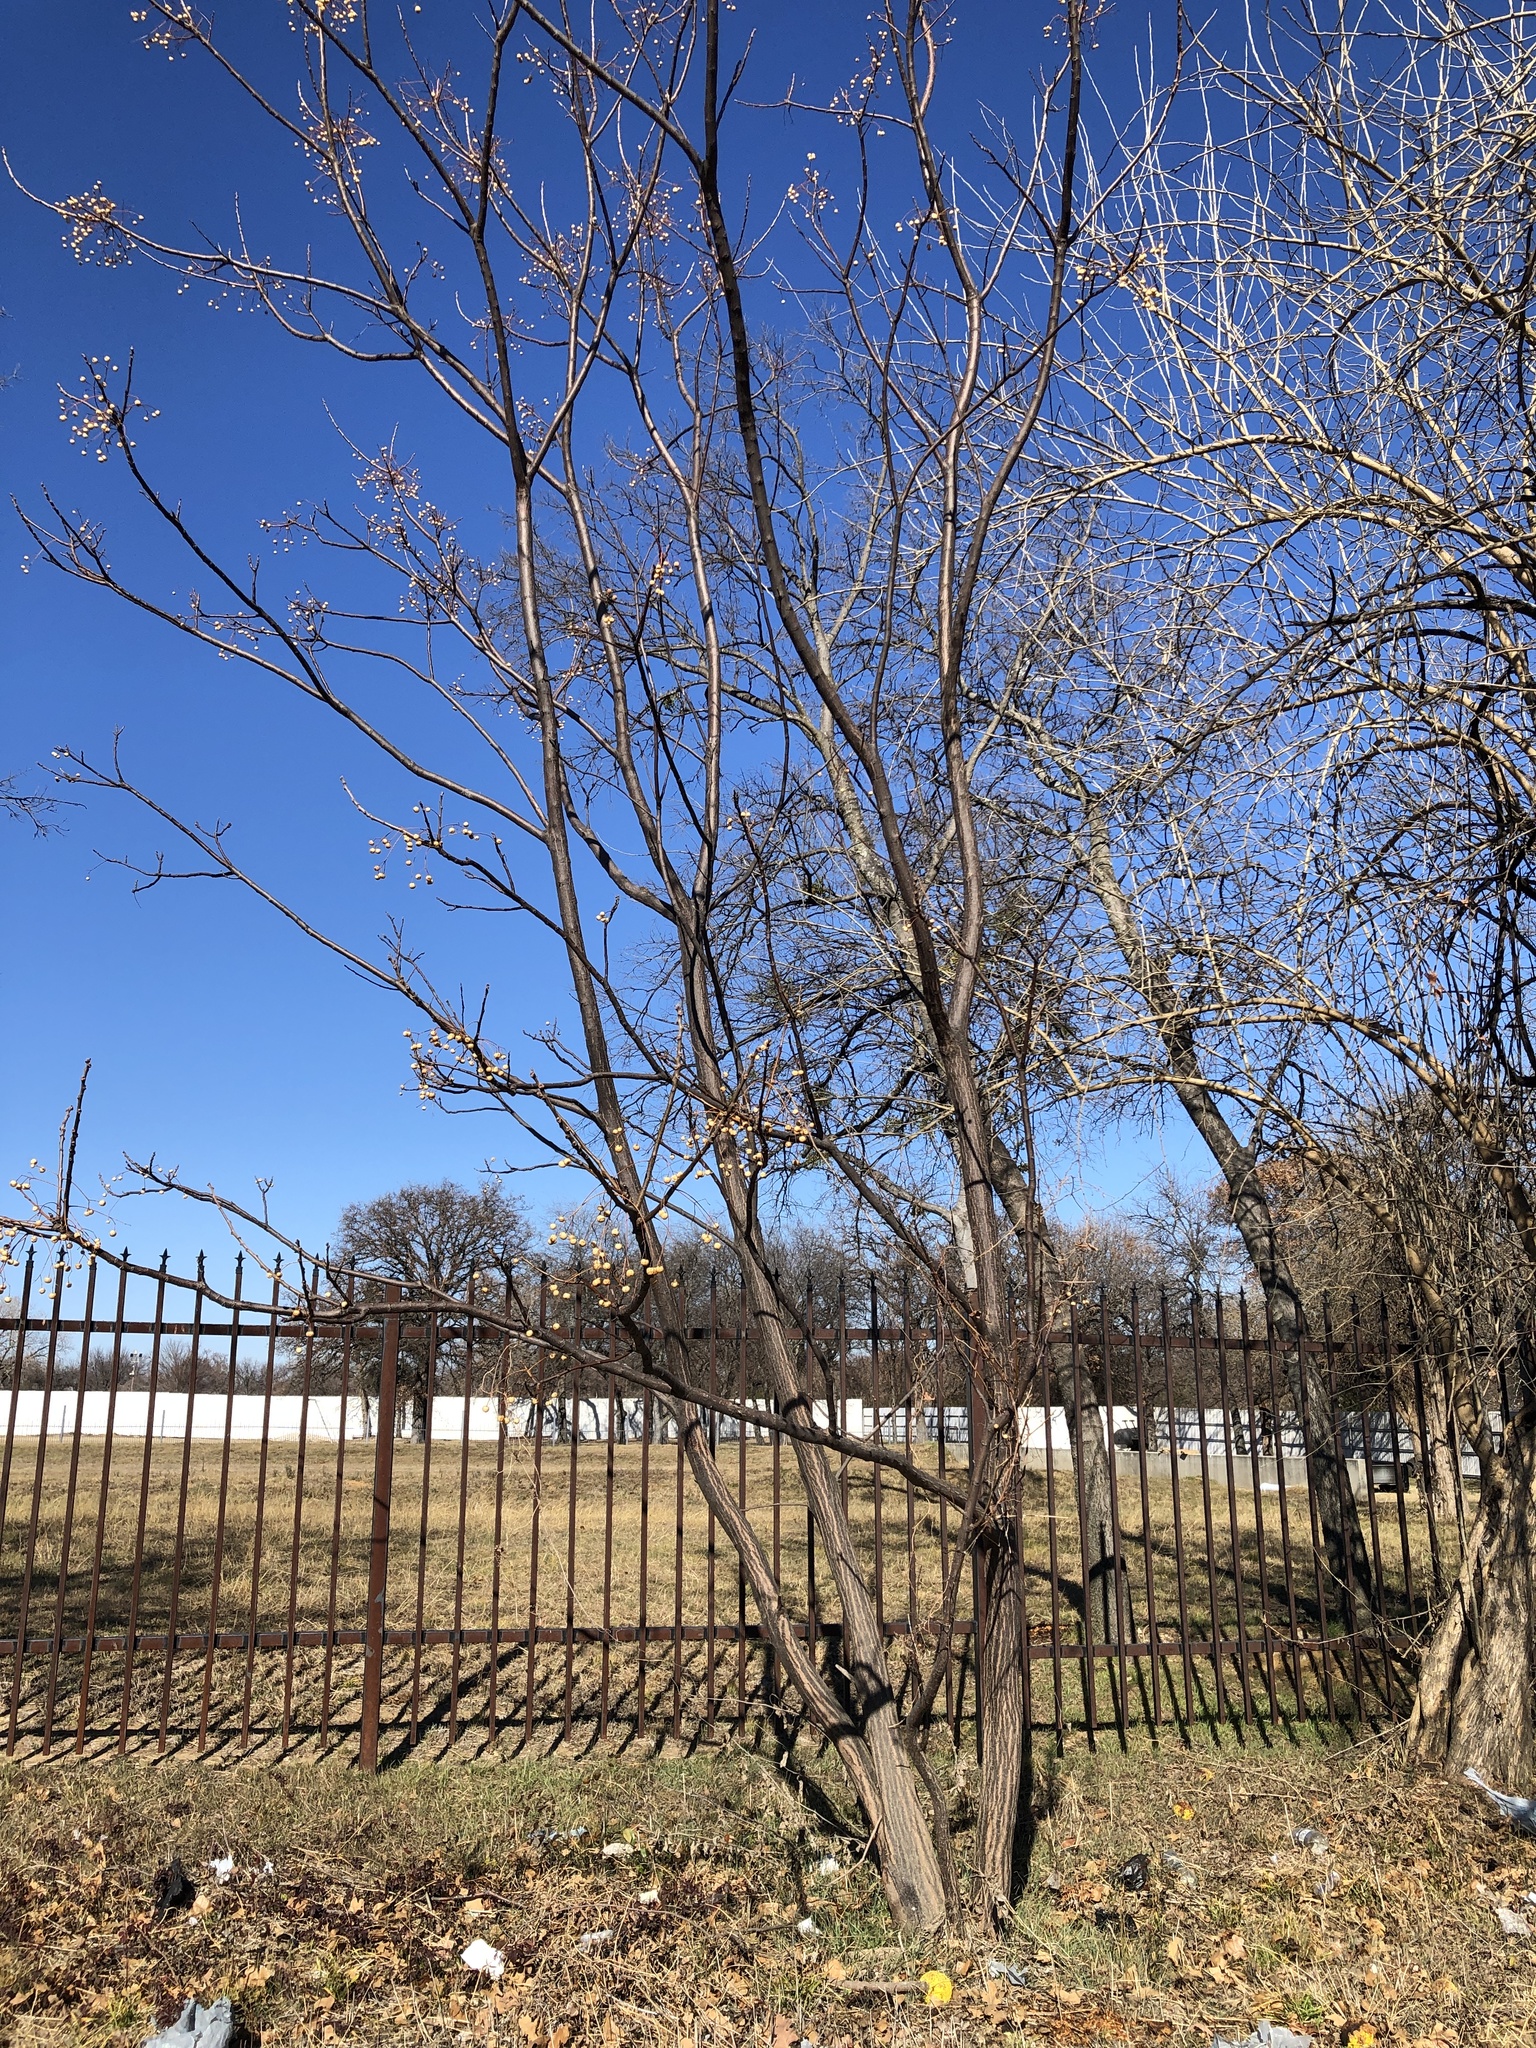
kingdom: Plantae
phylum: Tracheophyta
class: Magnoliopsida
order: Sapindales
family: Meliaceae
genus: Melia
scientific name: Melia azedarach
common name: Chinaberrytree
